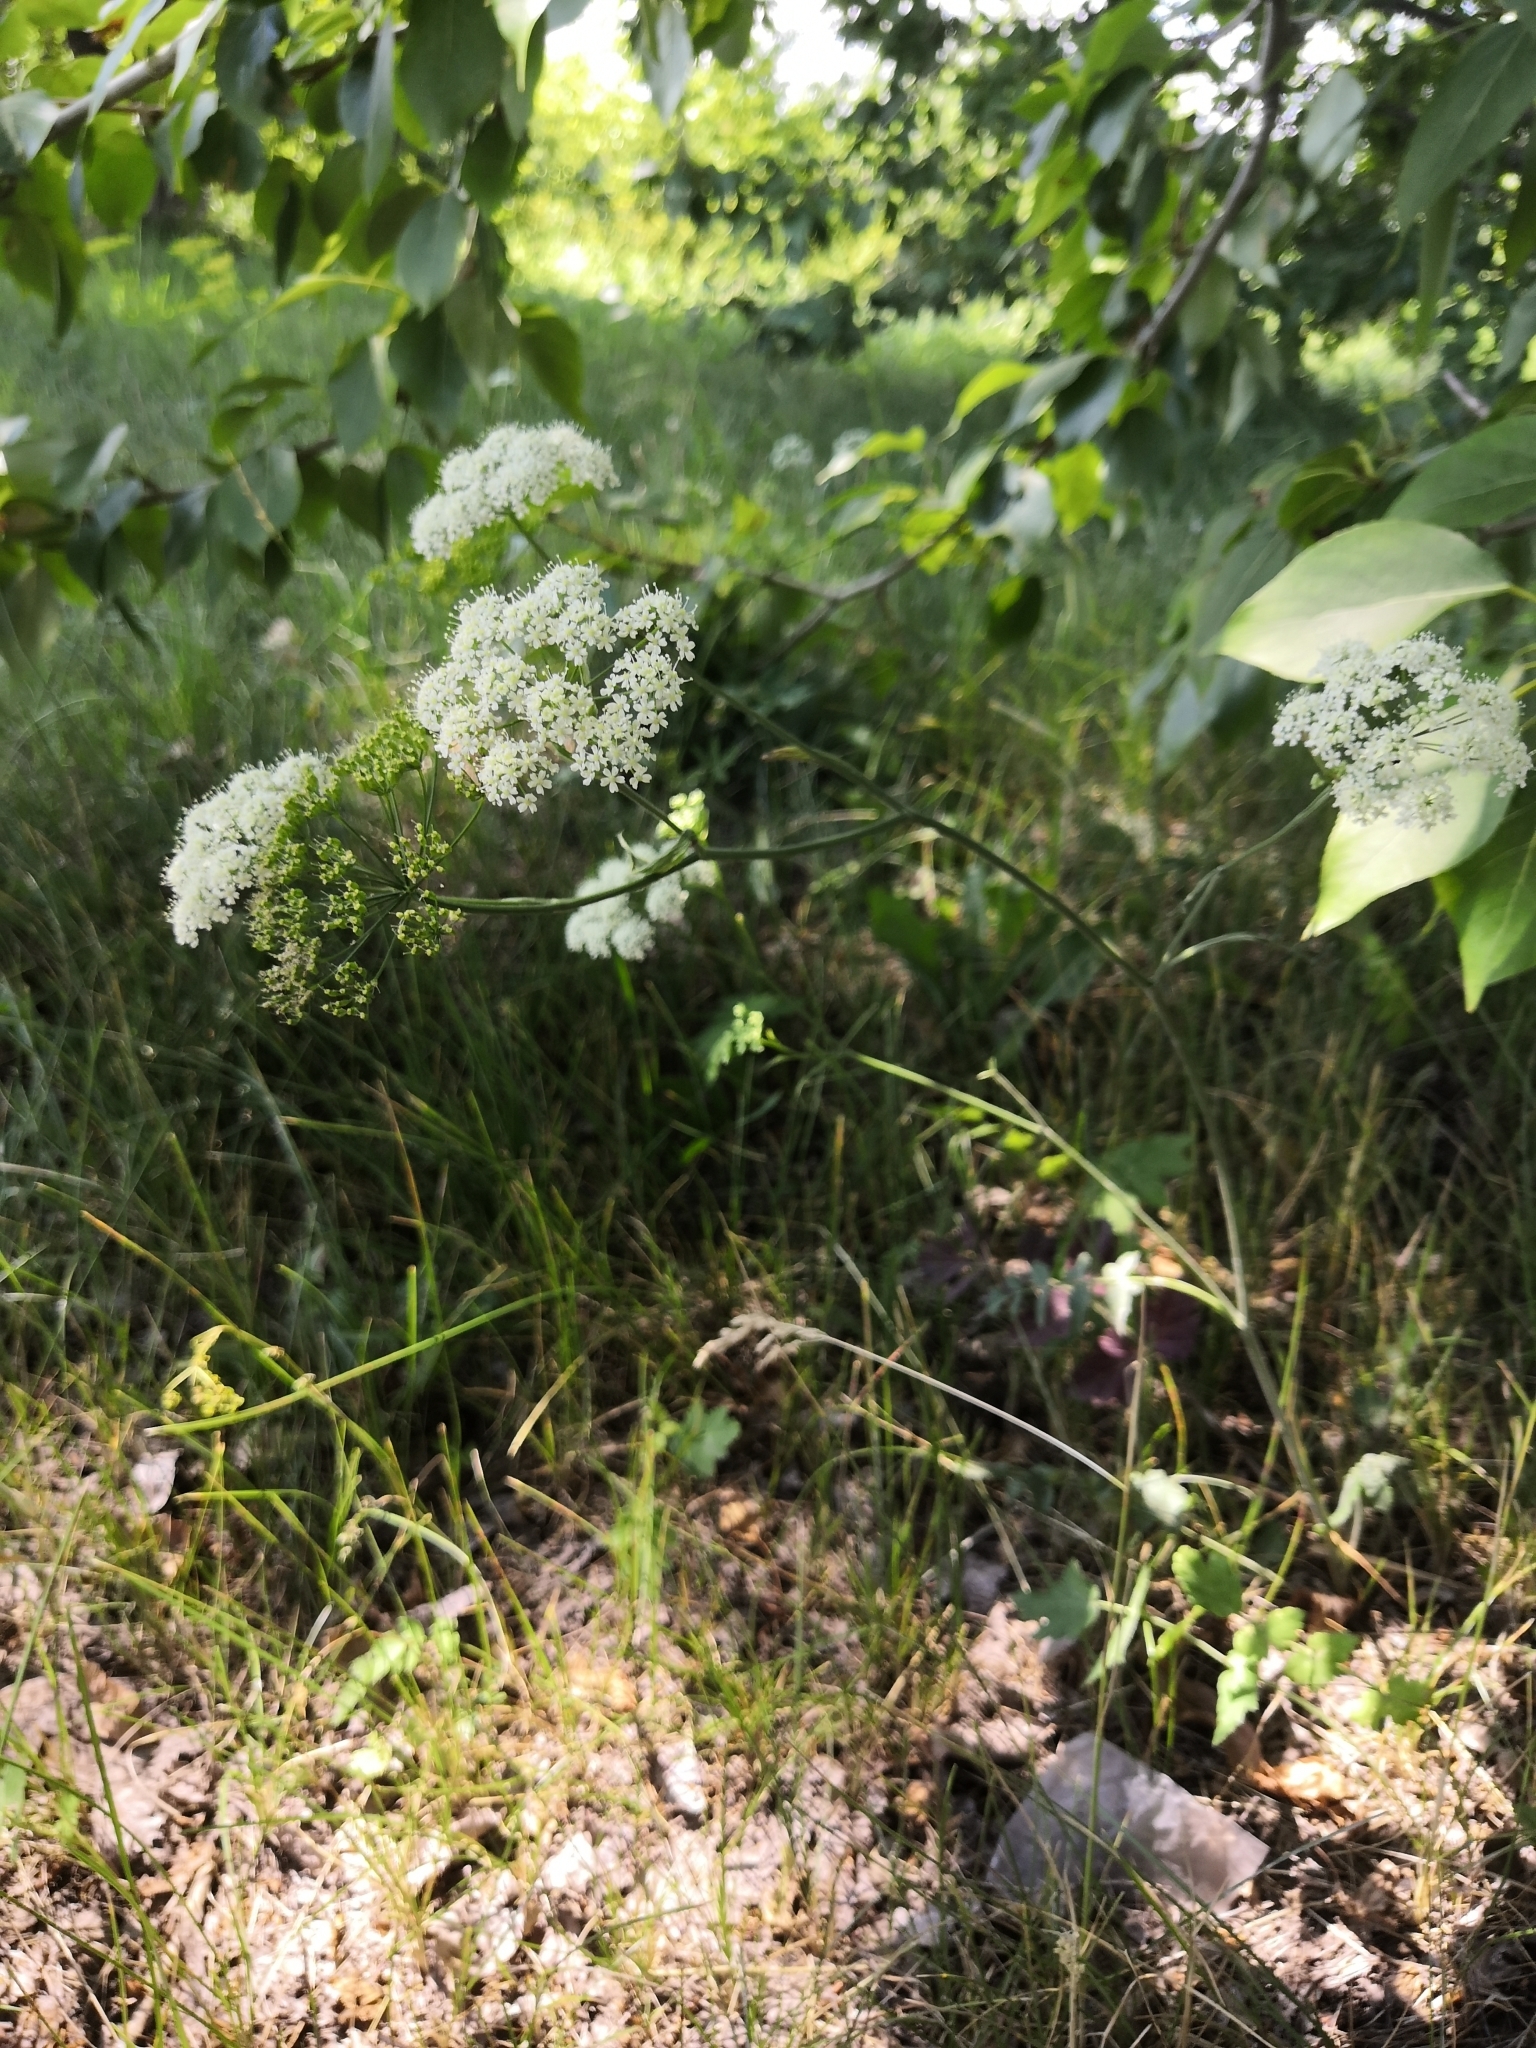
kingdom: Plantae
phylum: Tracheophyta
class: Magnoliopsida
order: Apiales
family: Apiaceae
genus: Pimpinella
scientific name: Pimpinella saxifraga
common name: Burnet-saxifrage
